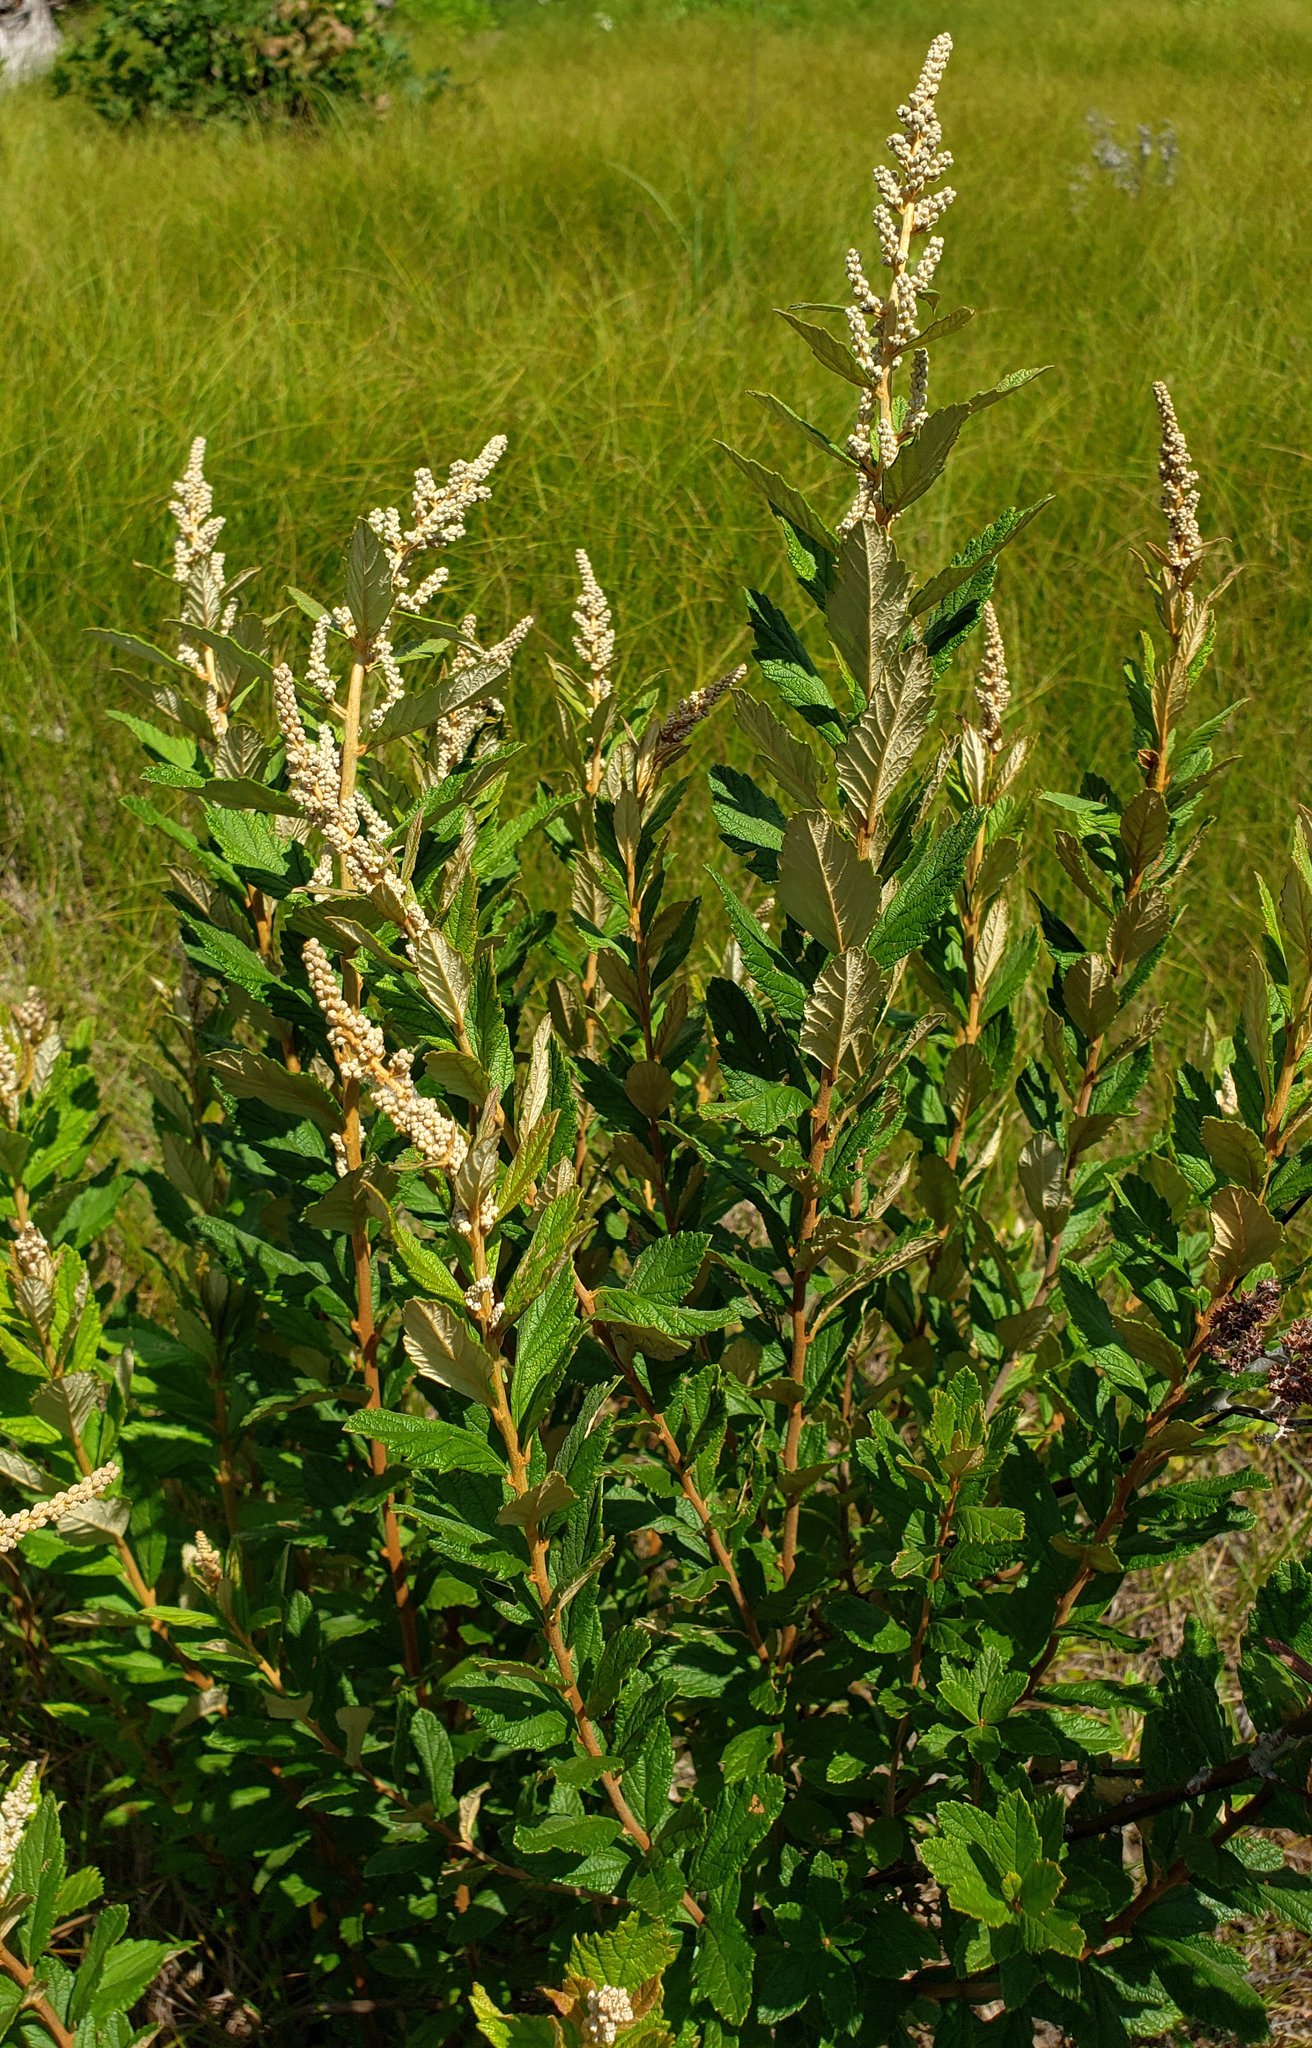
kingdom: Plantae
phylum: Tracheophyta
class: Magnoliopsida
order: Rosales
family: Rosaceae
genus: Spiraea
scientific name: Spiraea tomentosa
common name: Hardhack
